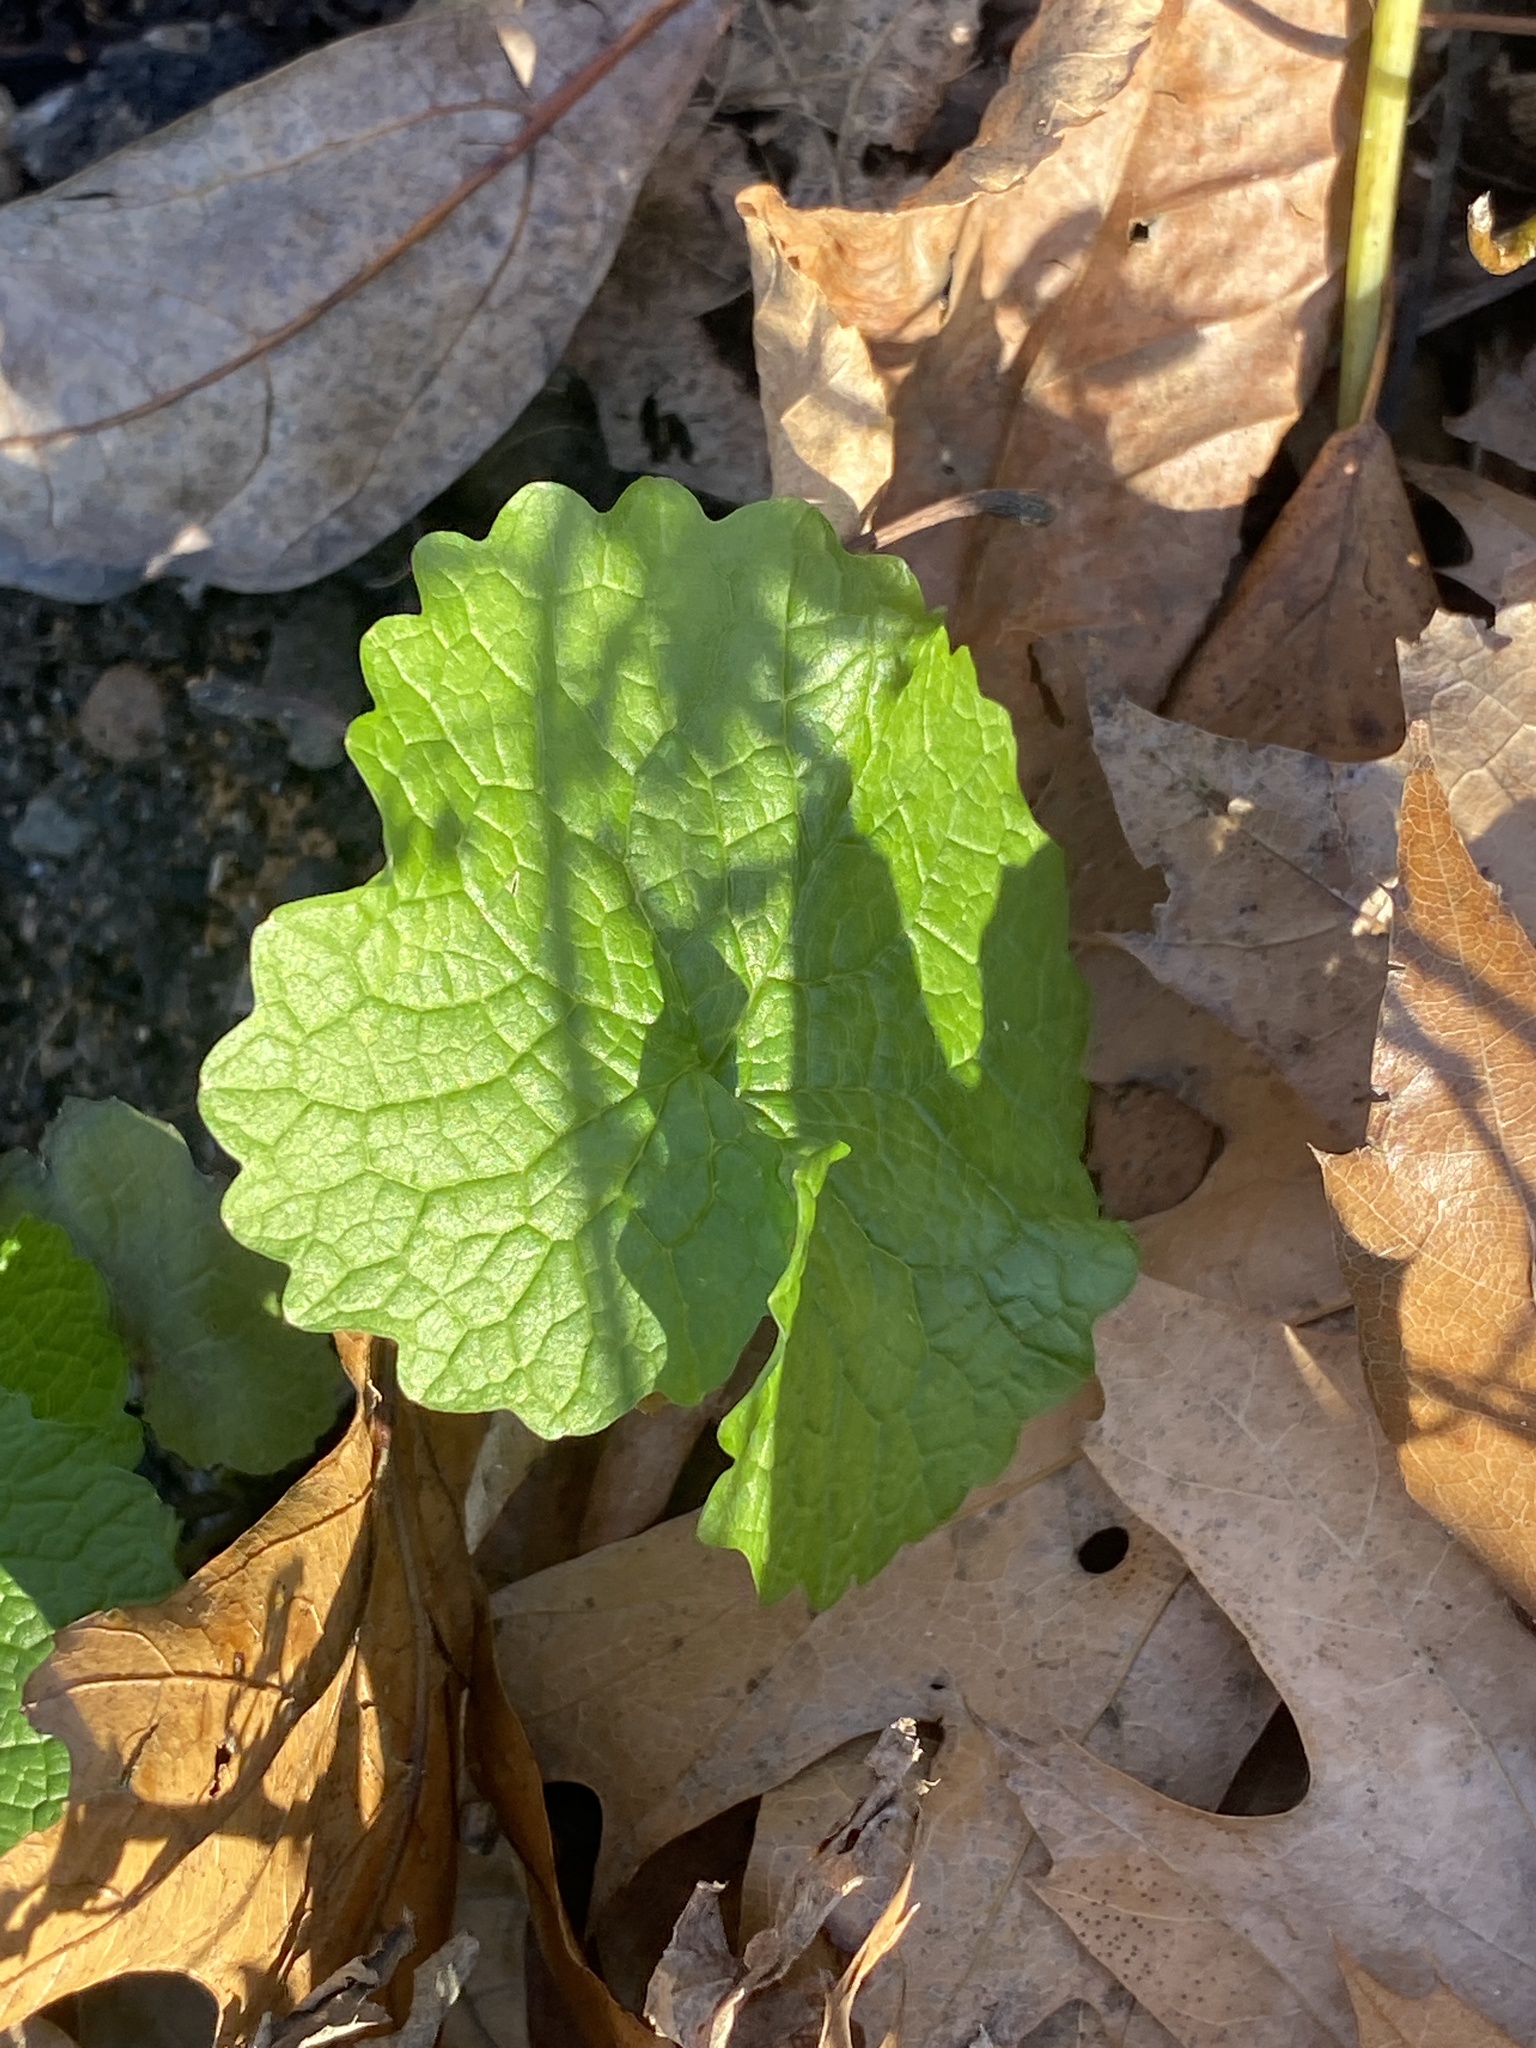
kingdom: Plantae
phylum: Tracheophyta
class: Magnoliopsida
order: Brassicales
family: Brassicaceae
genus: Alliaria
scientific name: Alliaria petiolata
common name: Garlic mustard
